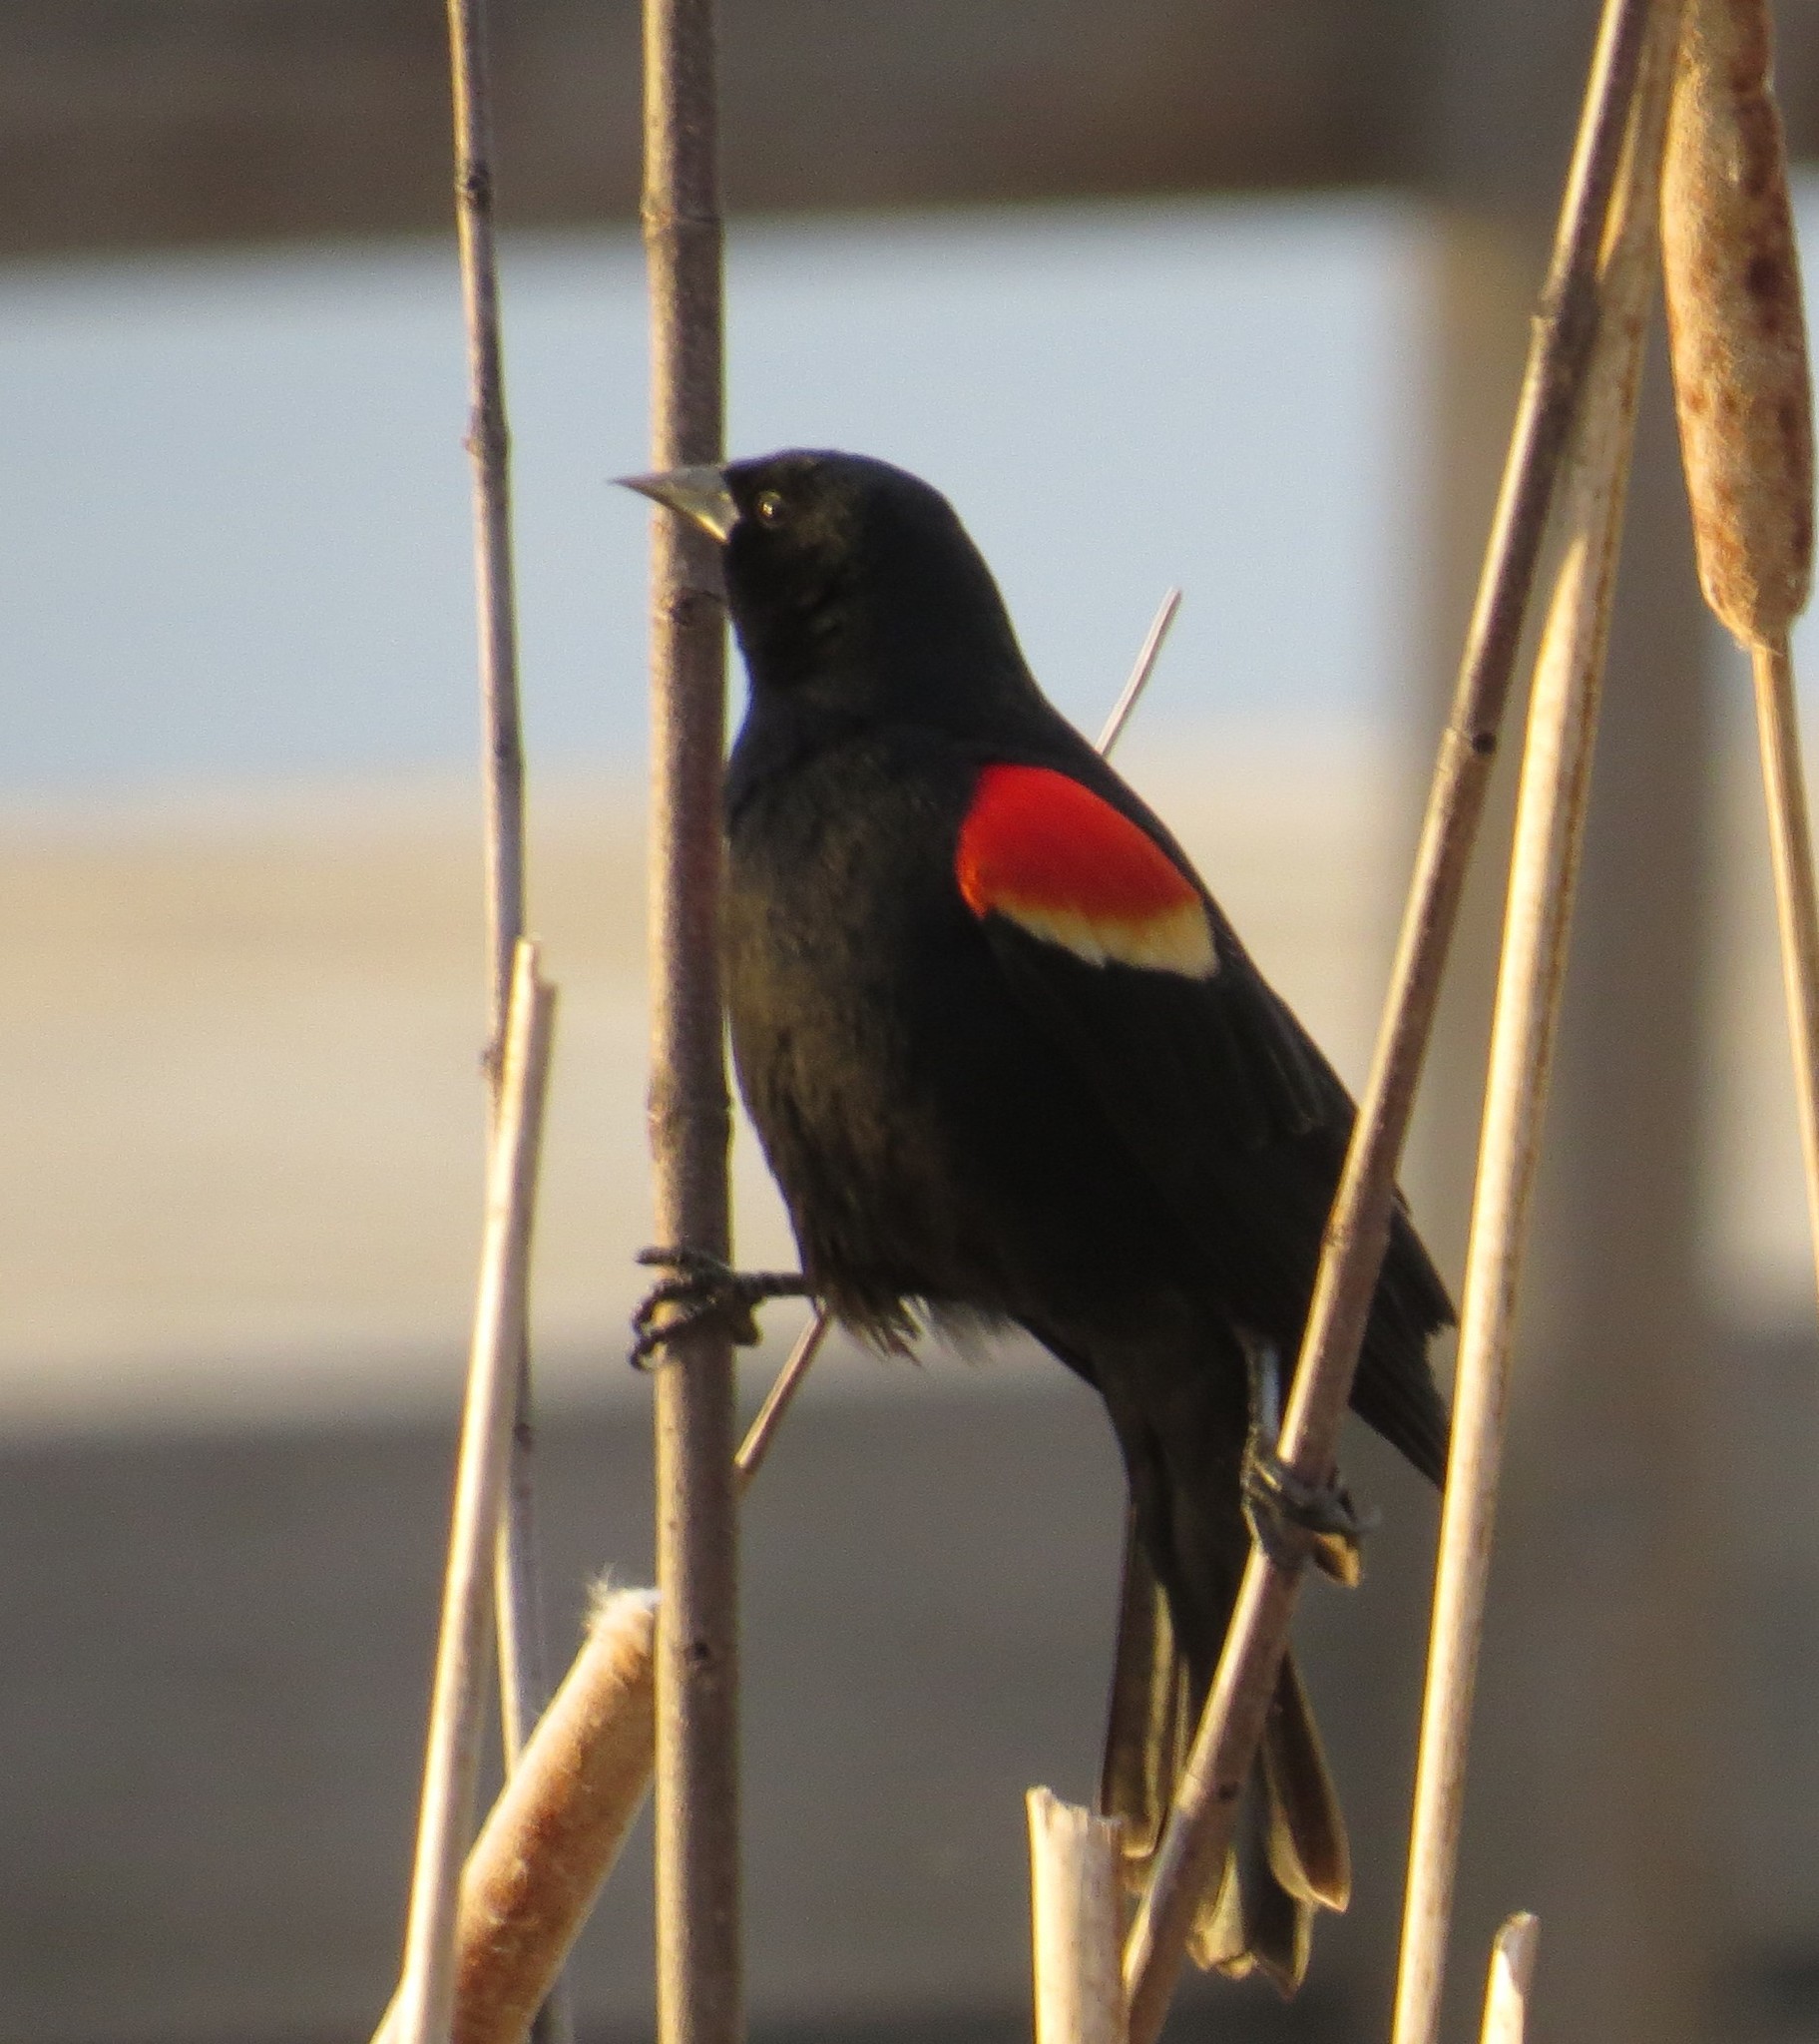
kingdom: Animalia
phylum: Chordata
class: Aves
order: Passeriformes
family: Icteridae
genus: Agelaius
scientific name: Agelaius phoeniceus
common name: Red-winged blackbird
